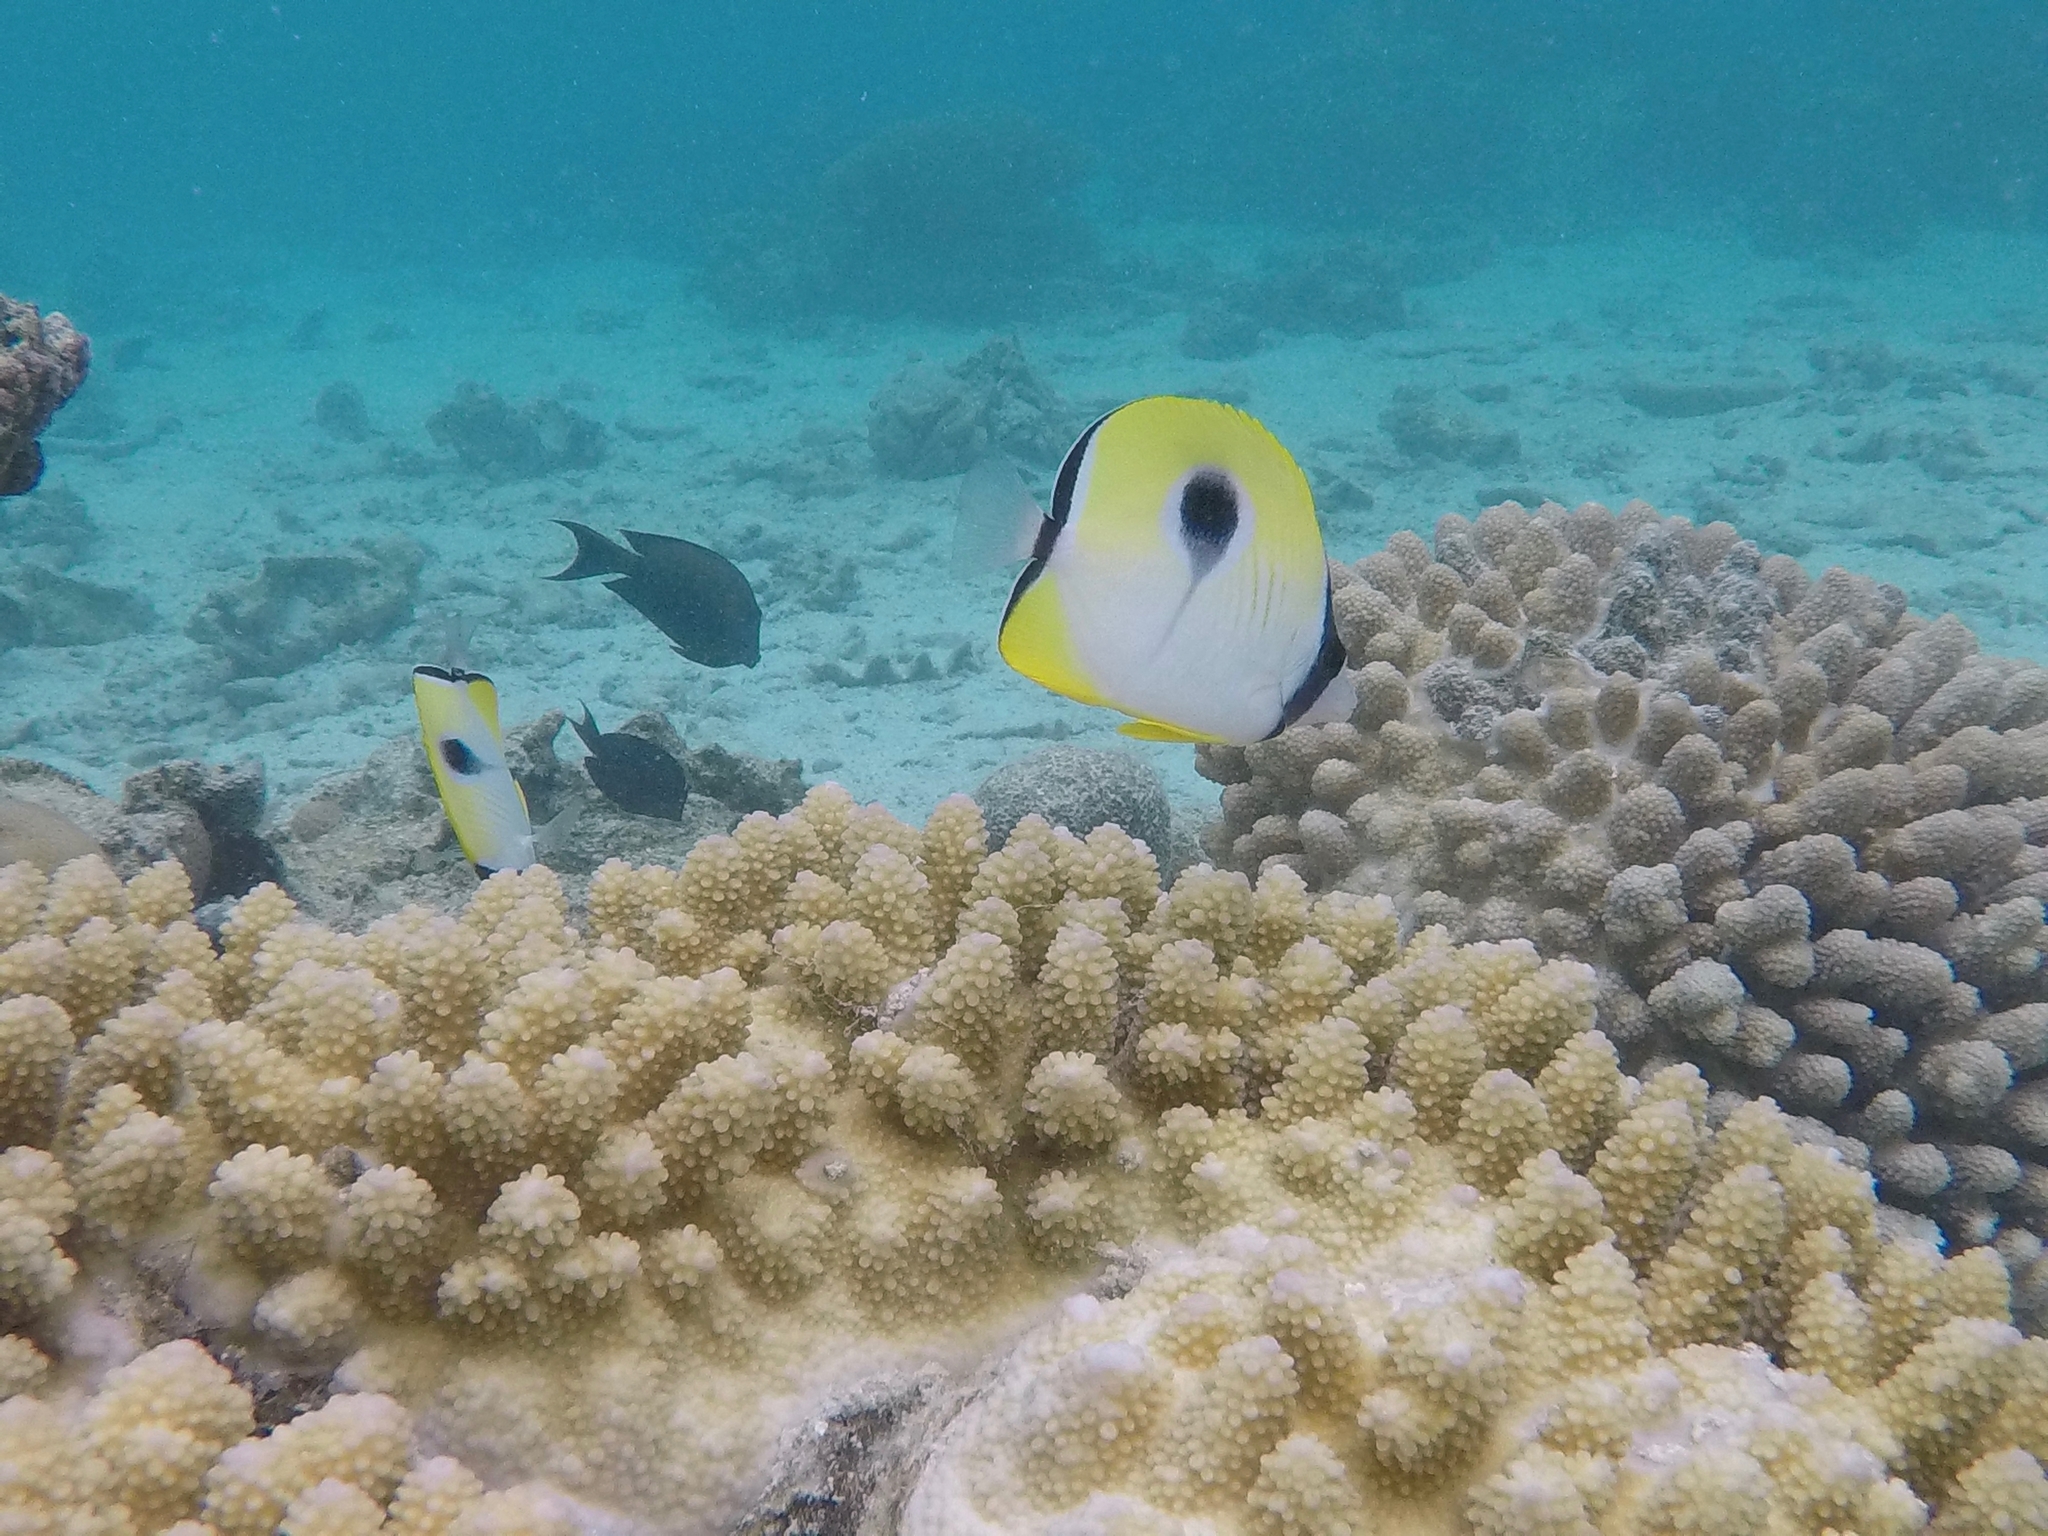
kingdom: Animalia
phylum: Chordata
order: Perciformes
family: Chaetodontidae
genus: Chaetodon
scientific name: Chaetodon unimaculatus
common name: Teardrop butterflyfish
